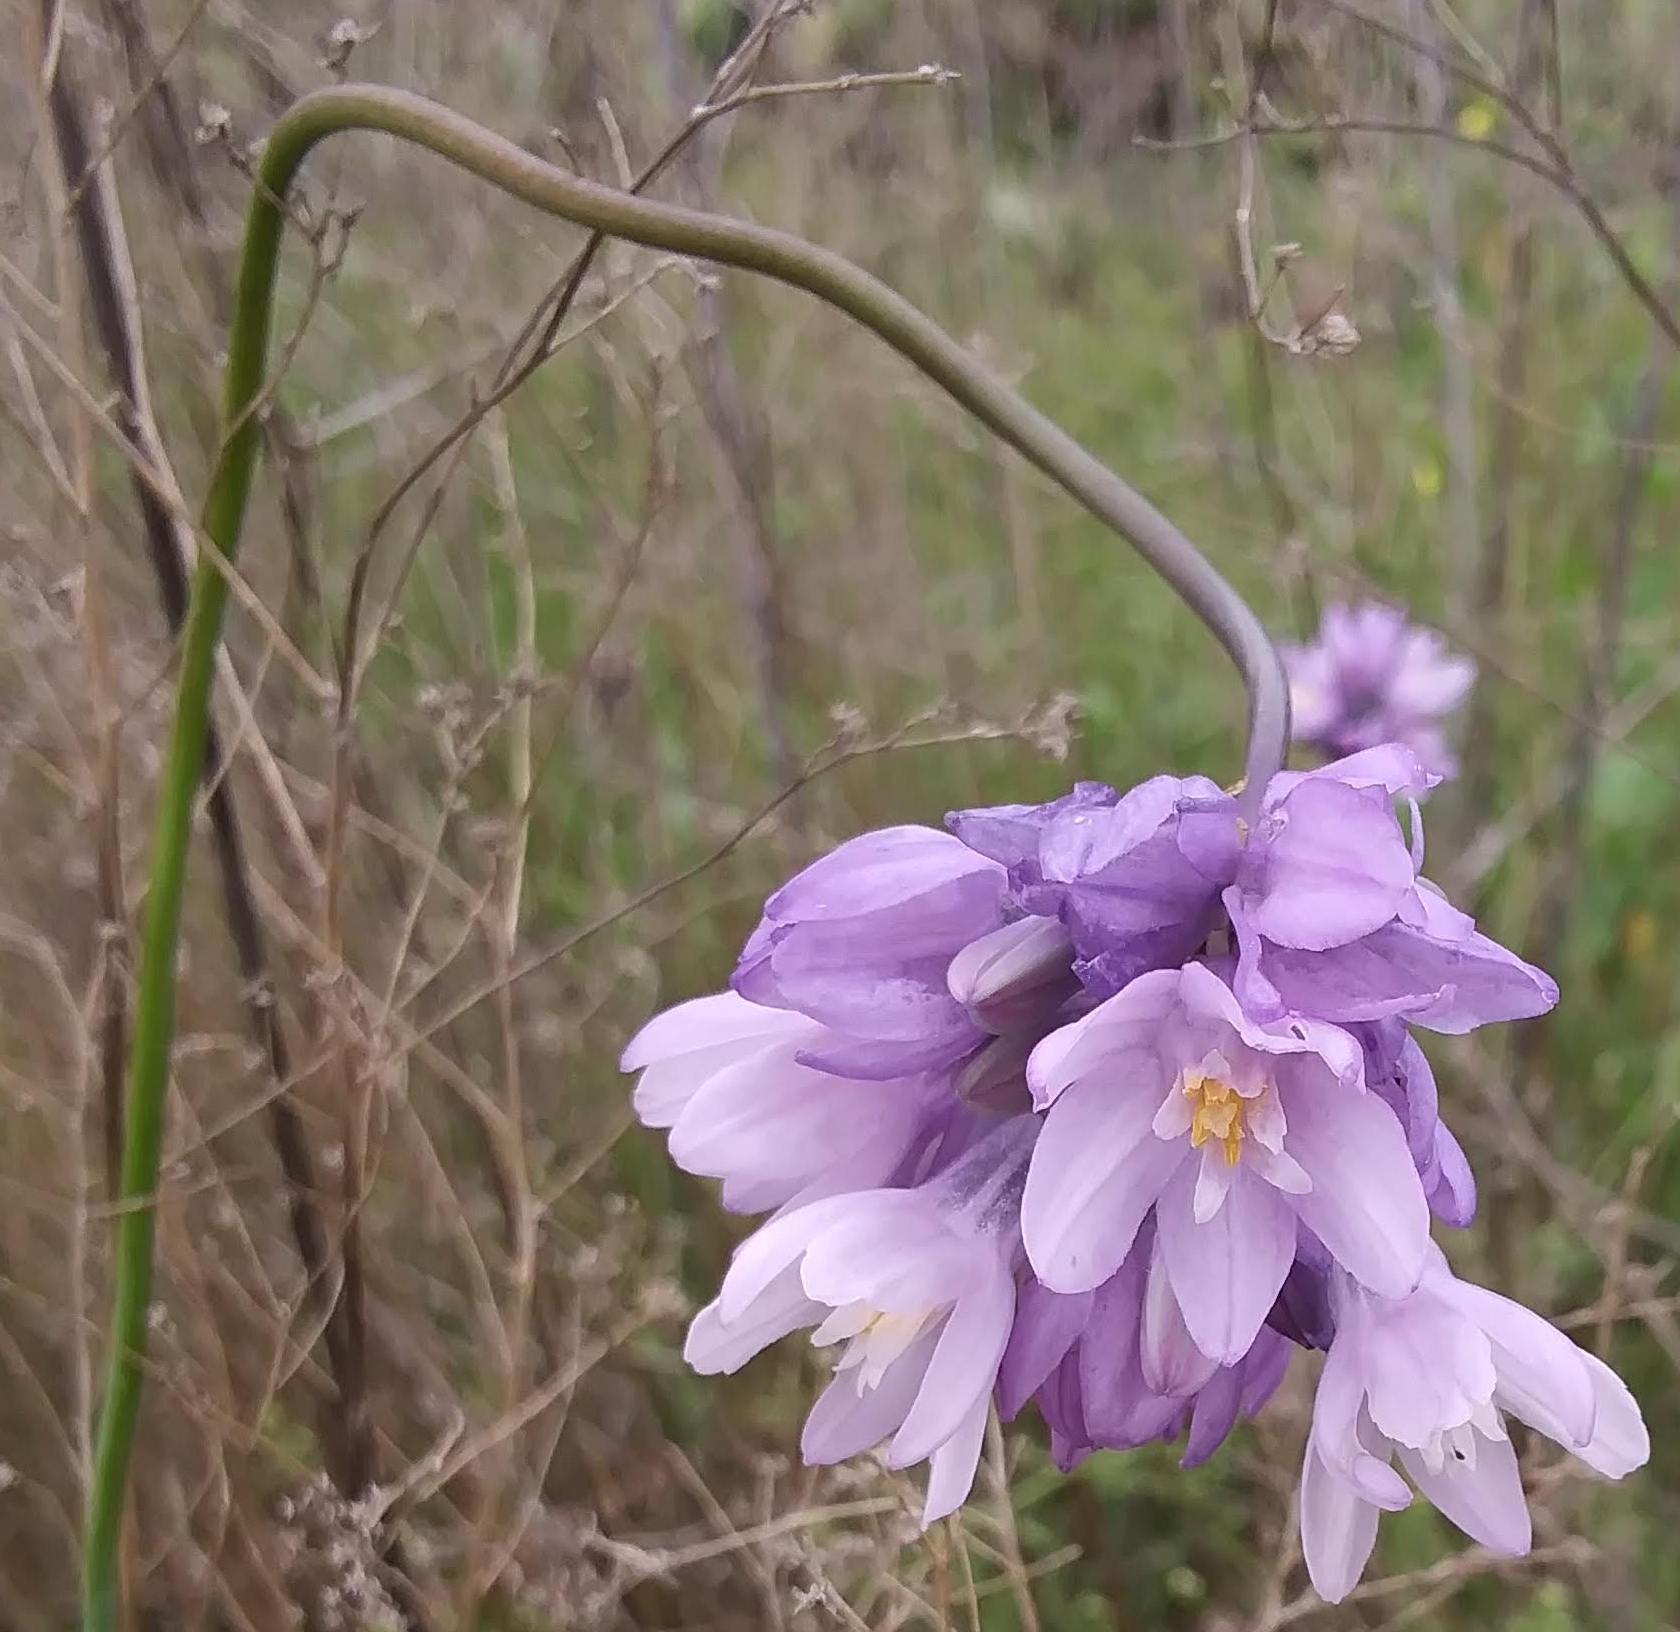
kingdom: Plantae
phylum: Tracheophyta
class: Liliopsida
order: Asparagales
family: Asparagaceae
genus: Dipterostemon
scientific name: Dipterostemon capitatus
